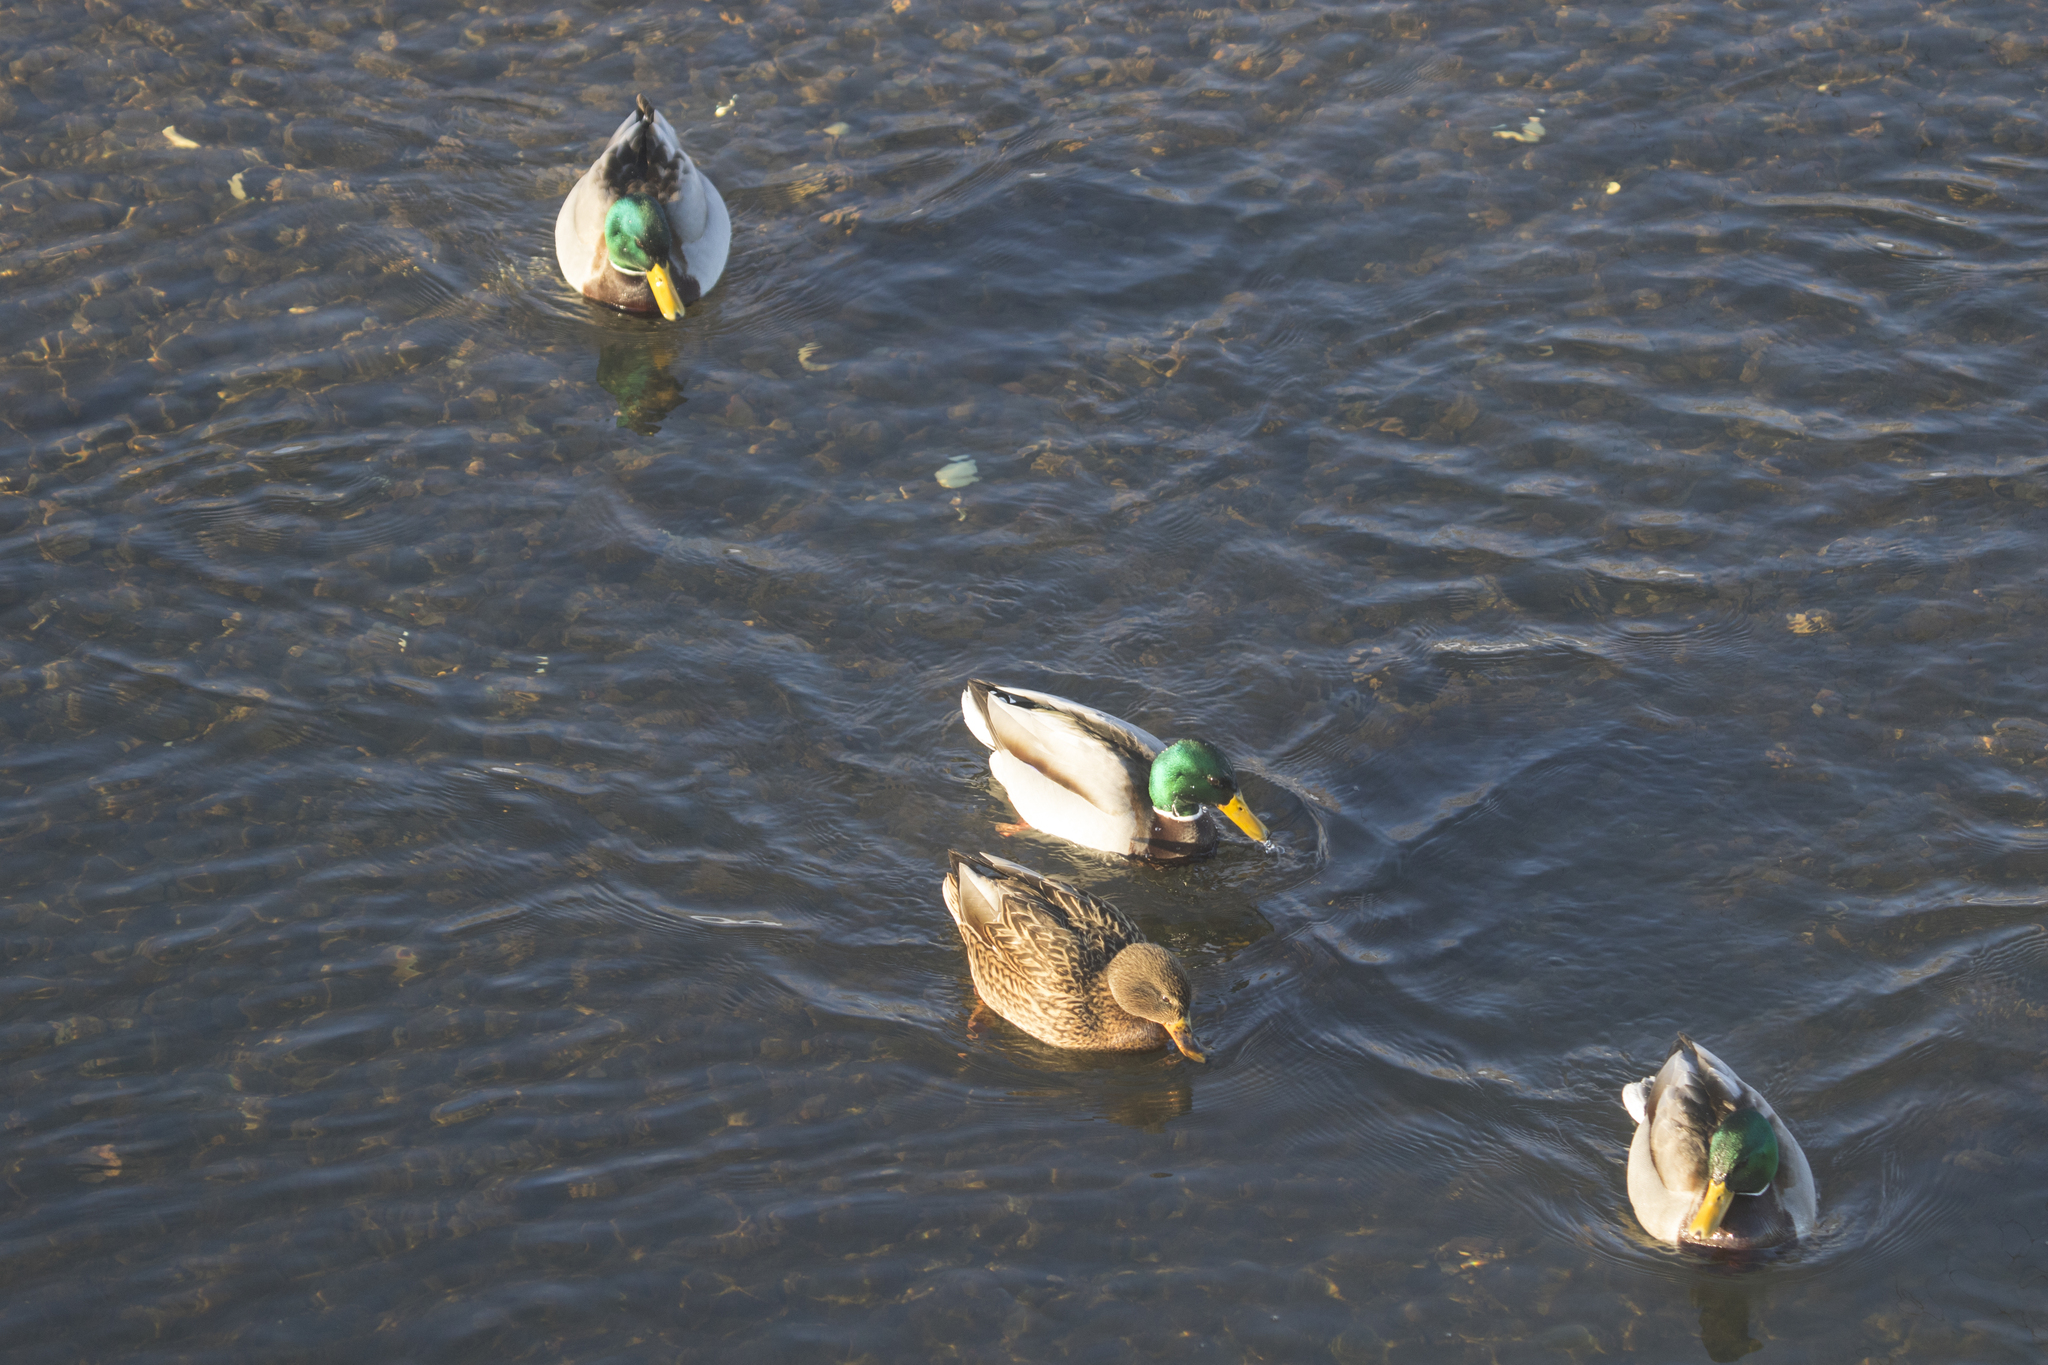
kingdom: Animalia
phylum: Chordata
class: Aves
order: Anseriformes
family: Anatidae
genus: Anas
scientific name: Anas platyrhynchos
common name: Mallard
